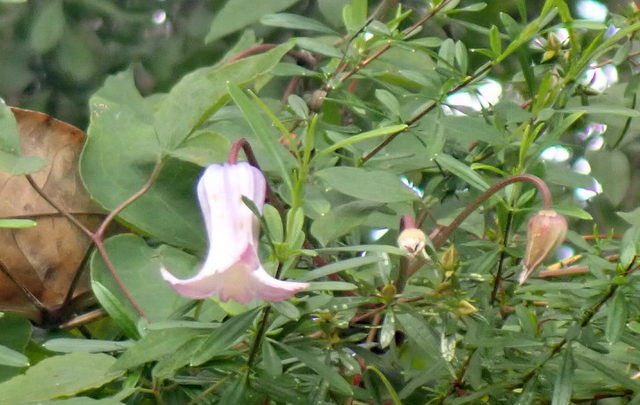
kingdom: Plantae
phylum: Tracheophyta
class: Magnoliopsida
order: Ranunculales
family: Ranunculaceae
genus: Clematis
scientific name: Clematis crispa
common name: Curly clematis
